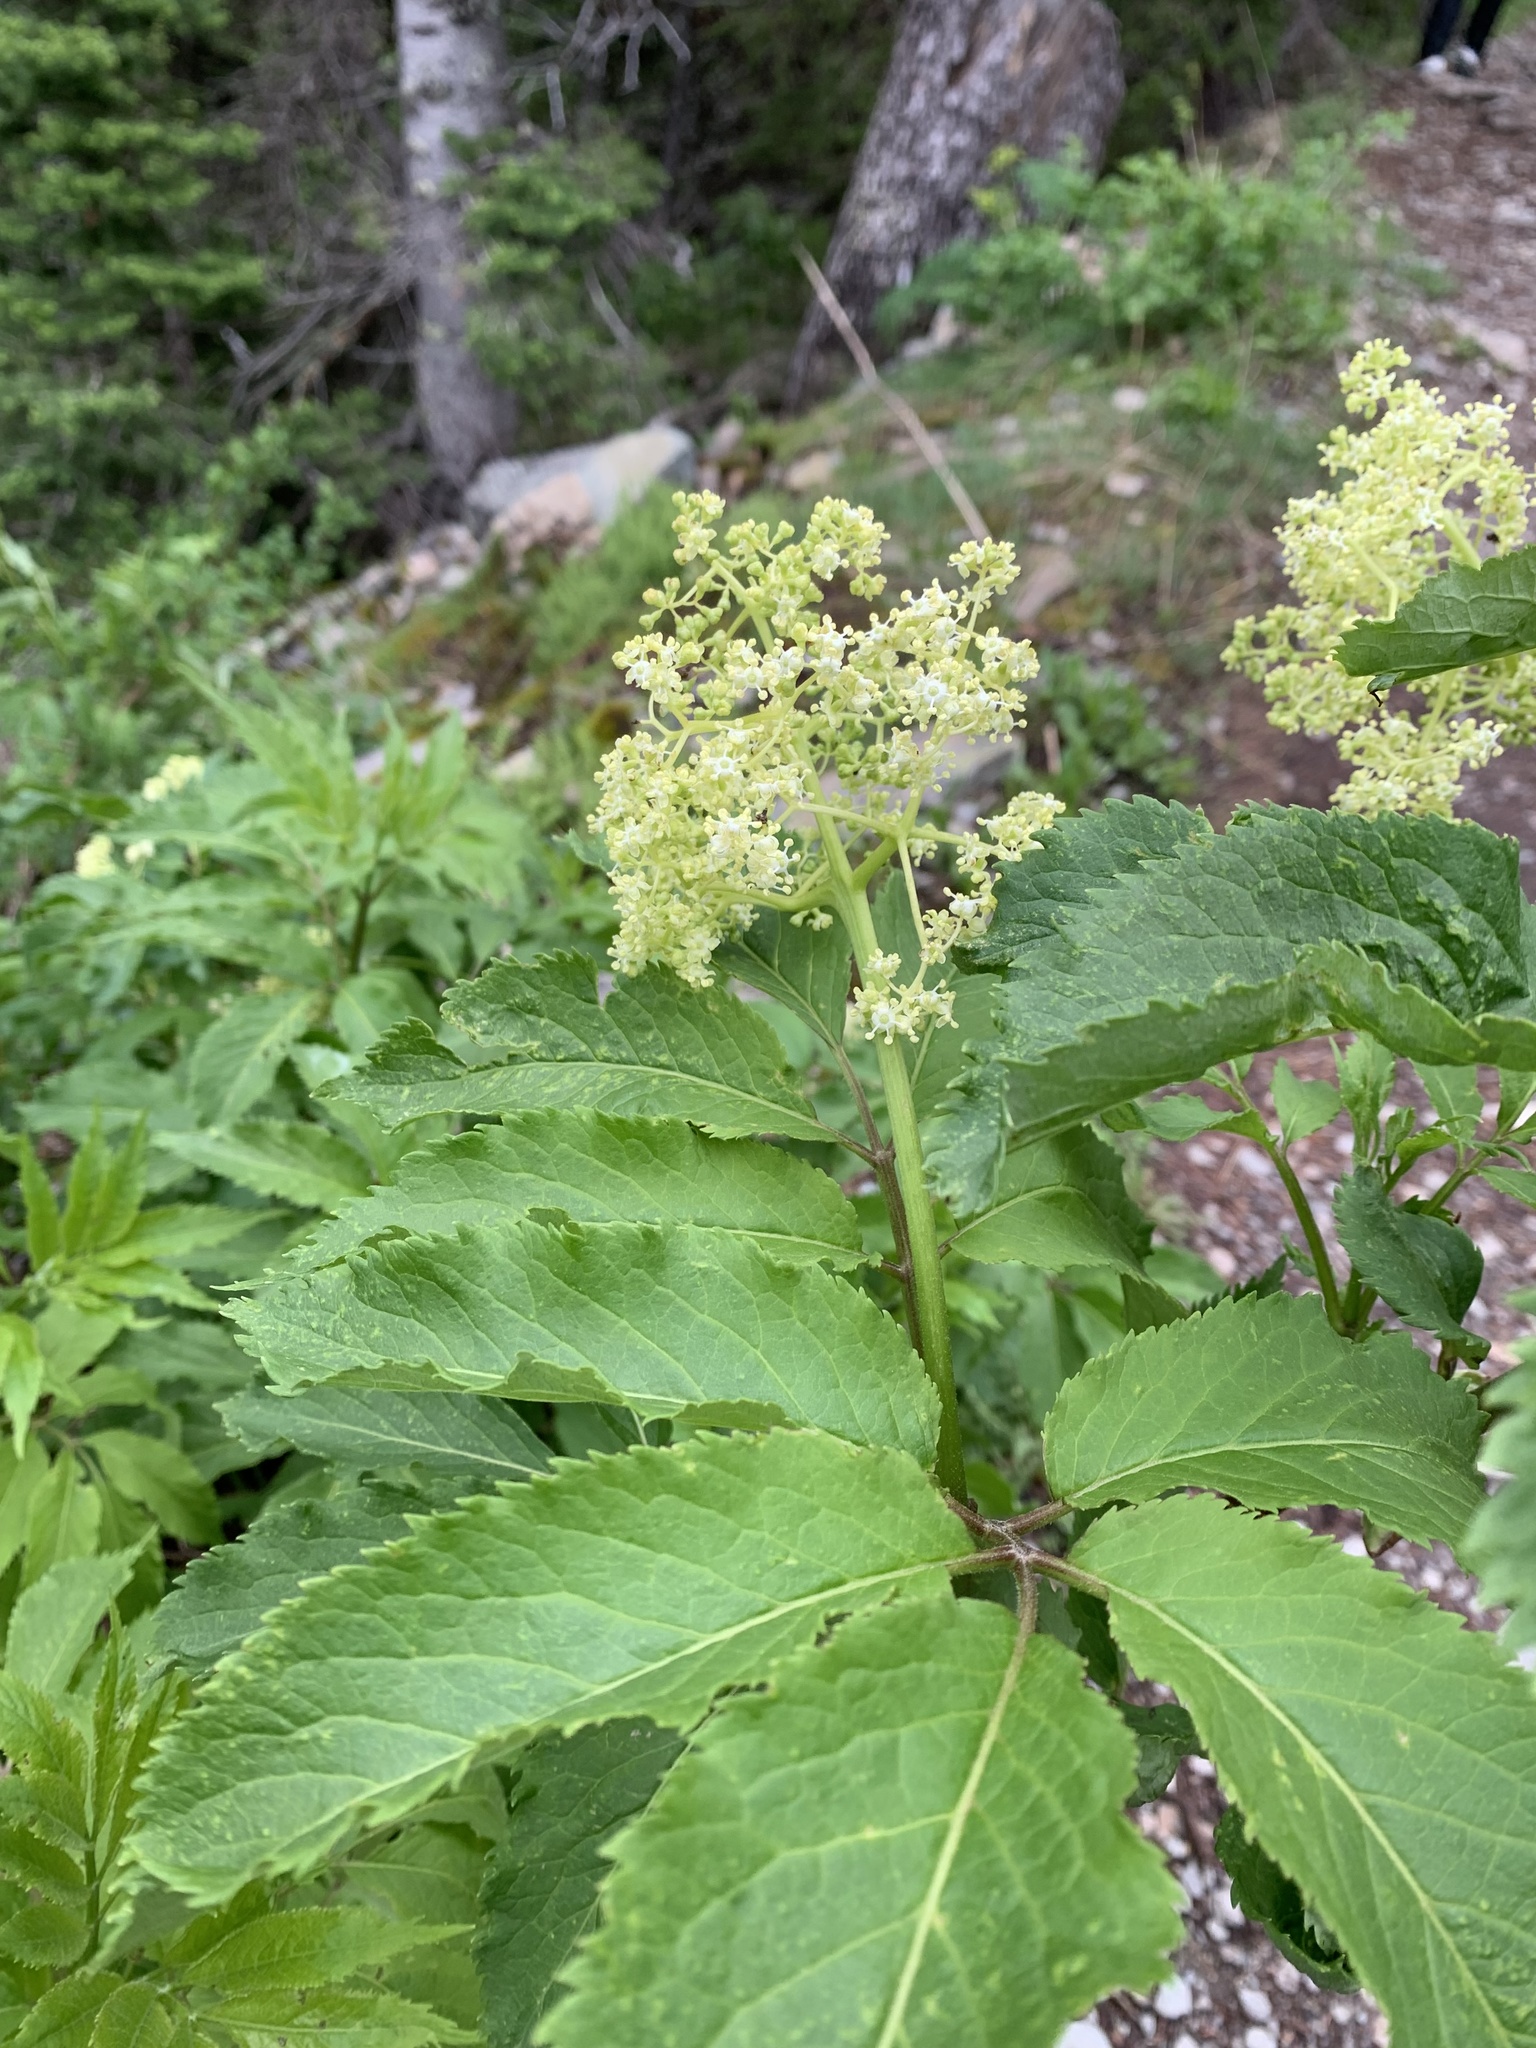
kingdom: Plantae
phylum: Tracheophyta
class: Magnoliopsida
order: Dipsacales
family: Viburnaceae
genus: Sambucus
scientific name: Sambucus racemosa
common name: Red-berried elder
